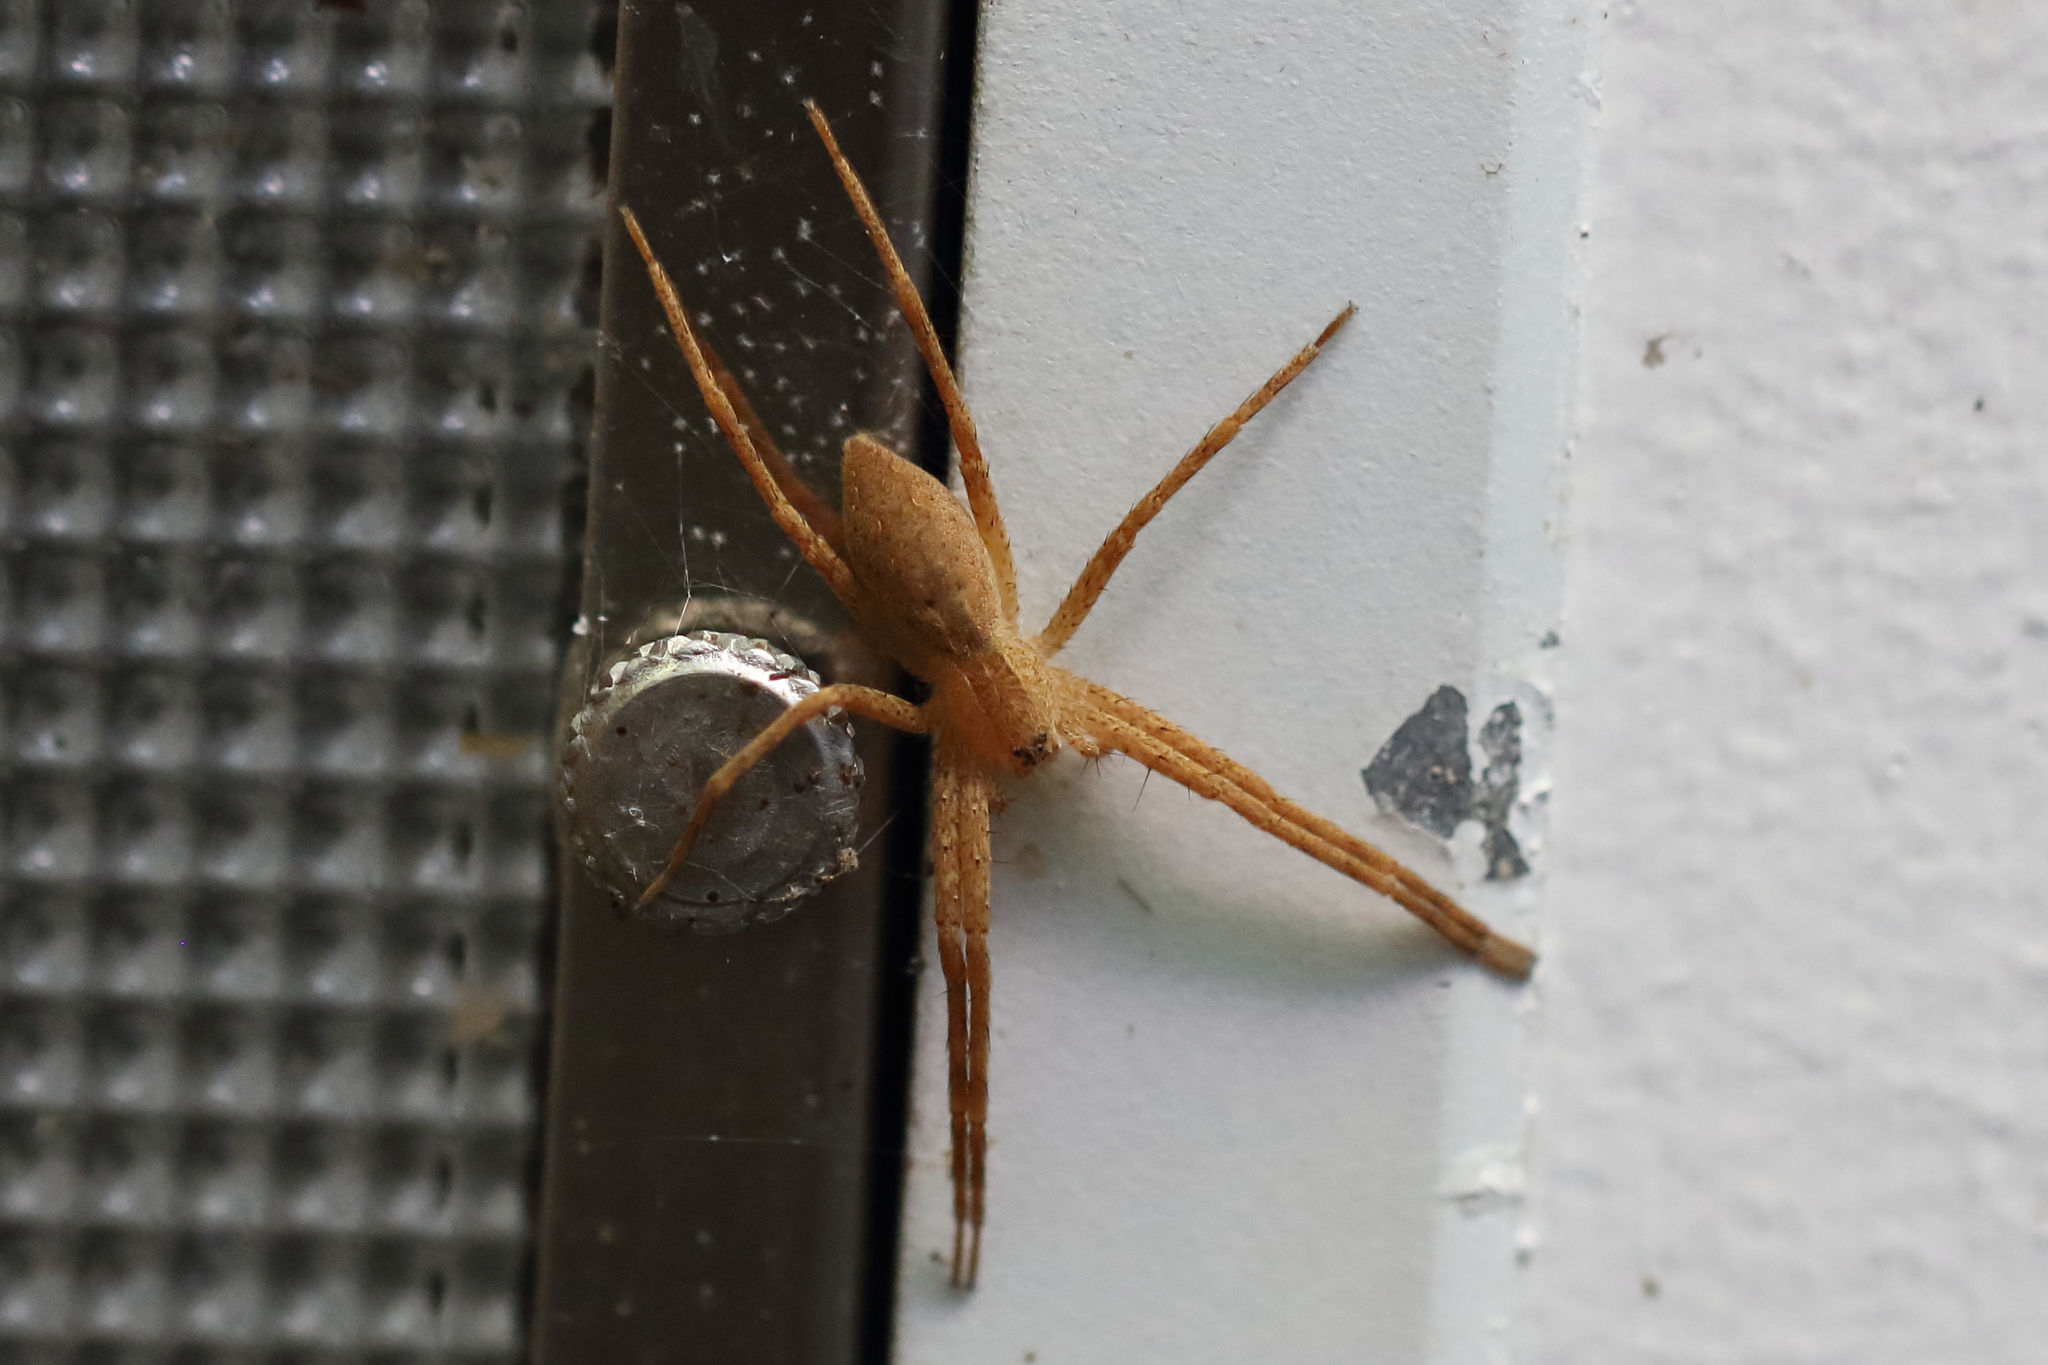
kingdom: Animalia
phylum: Arthropoda
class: Arachnida
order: Araneae
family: Pisauridae
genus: Pisaurina
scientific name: Pisaurina mira
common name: American nursery web spider
